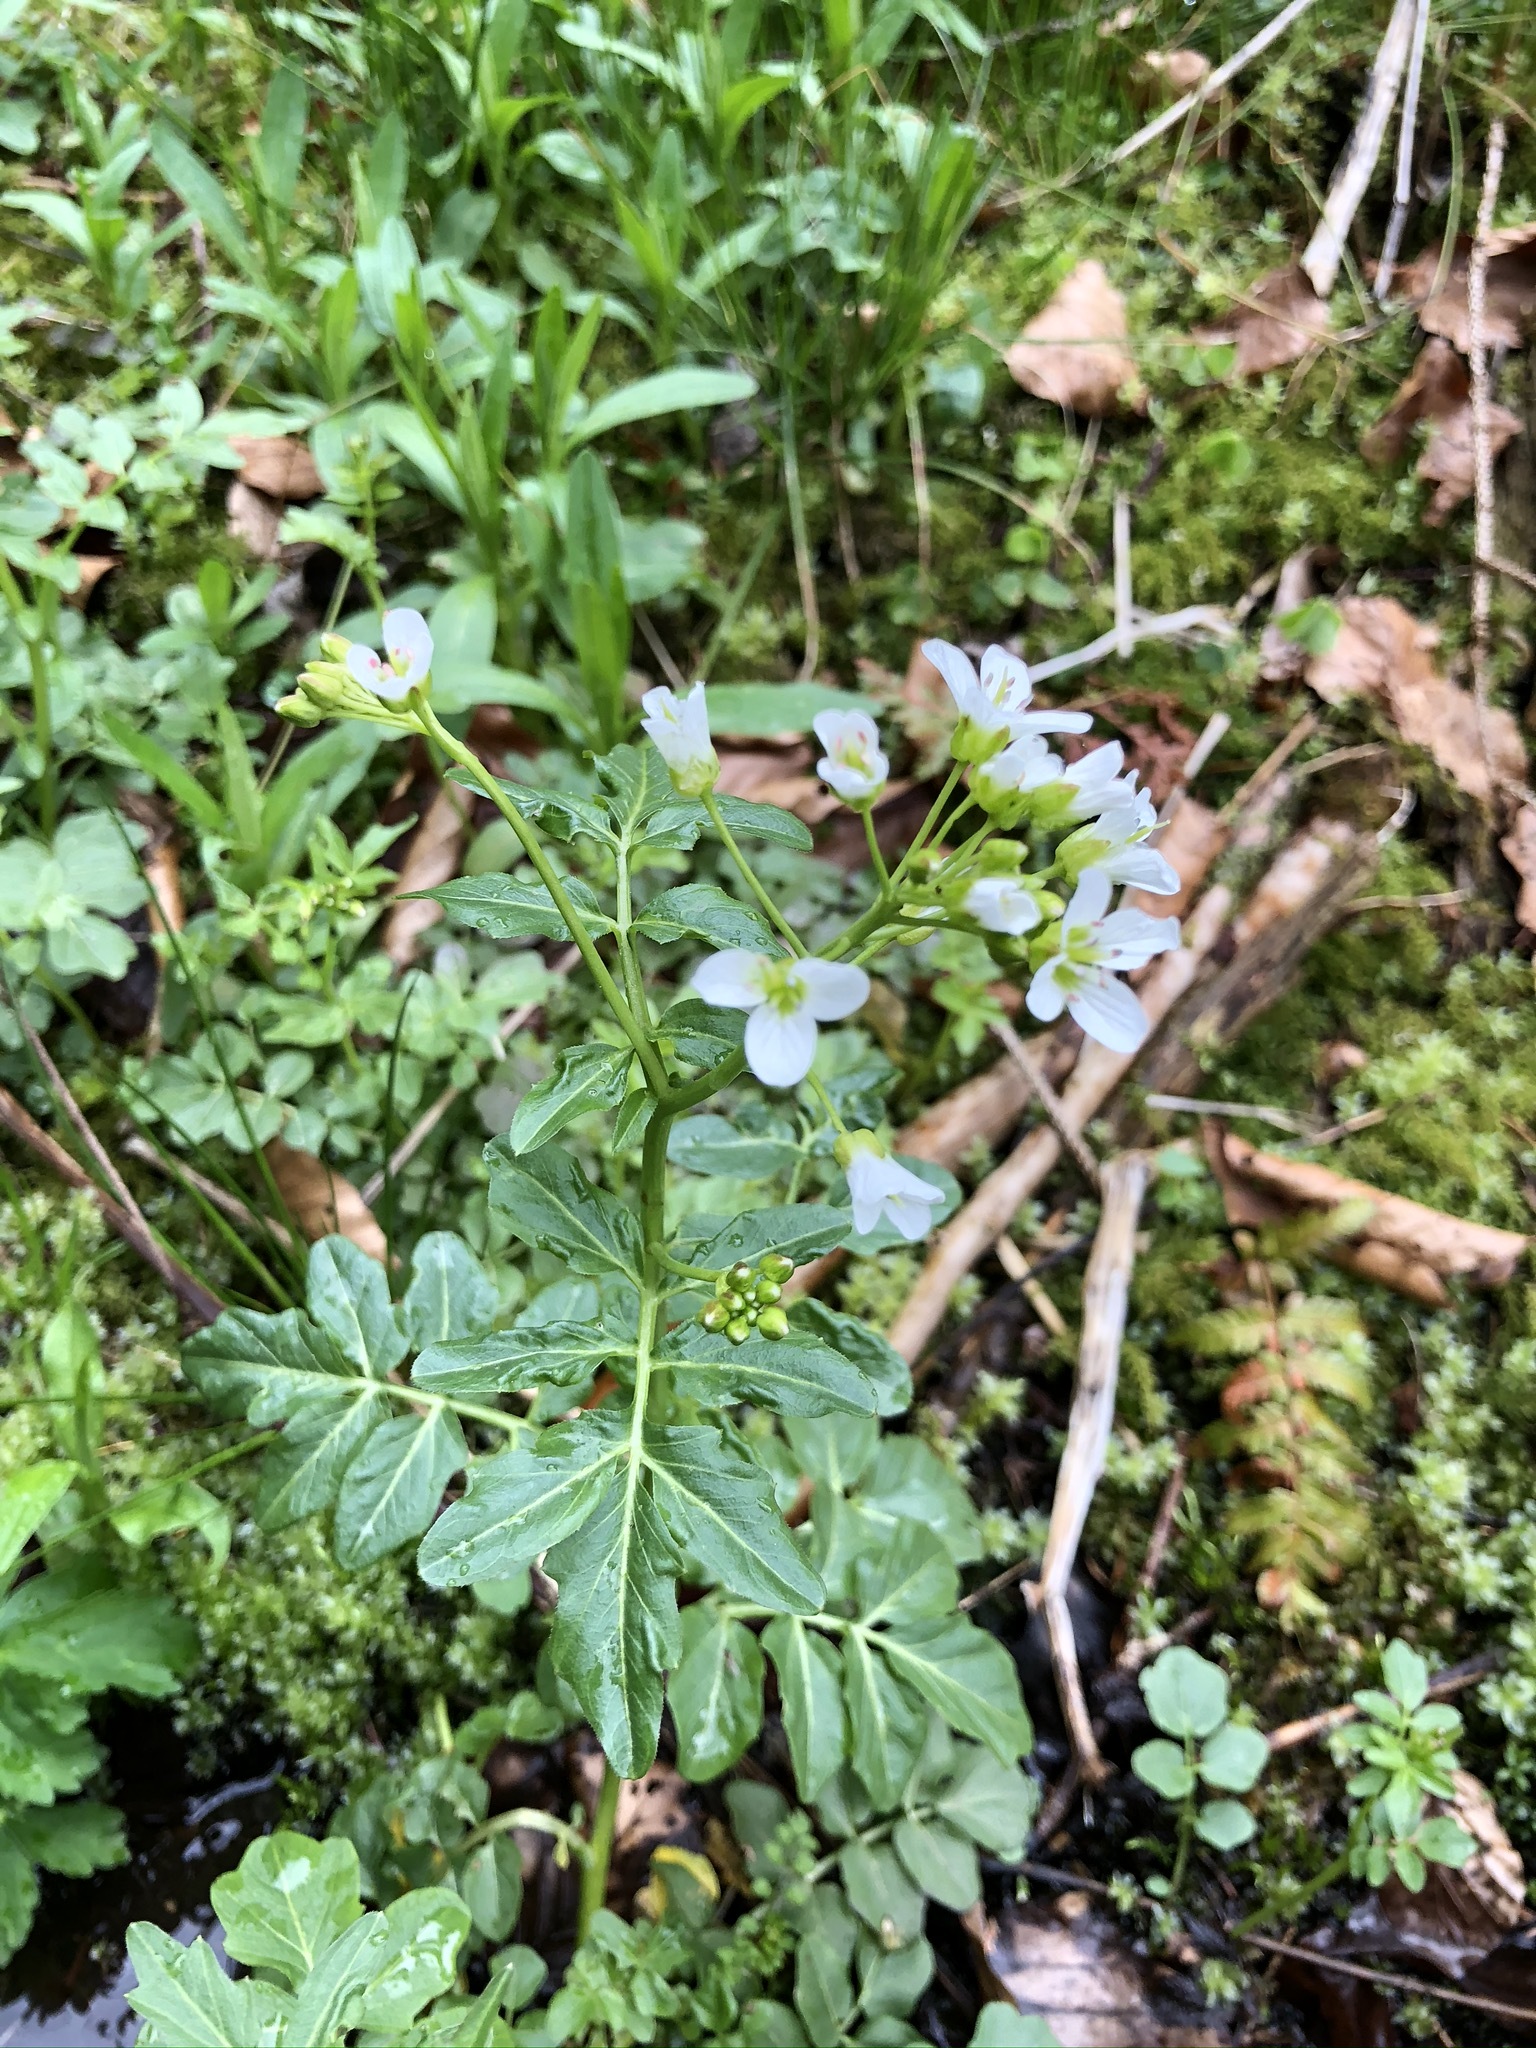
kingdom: Plantae
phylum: Tracheophyta
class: Magnoliopsida
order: Brassicales
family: Brassicaceae
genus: Cardamine
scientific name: Cardamine amara
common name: Large bitter-cress
